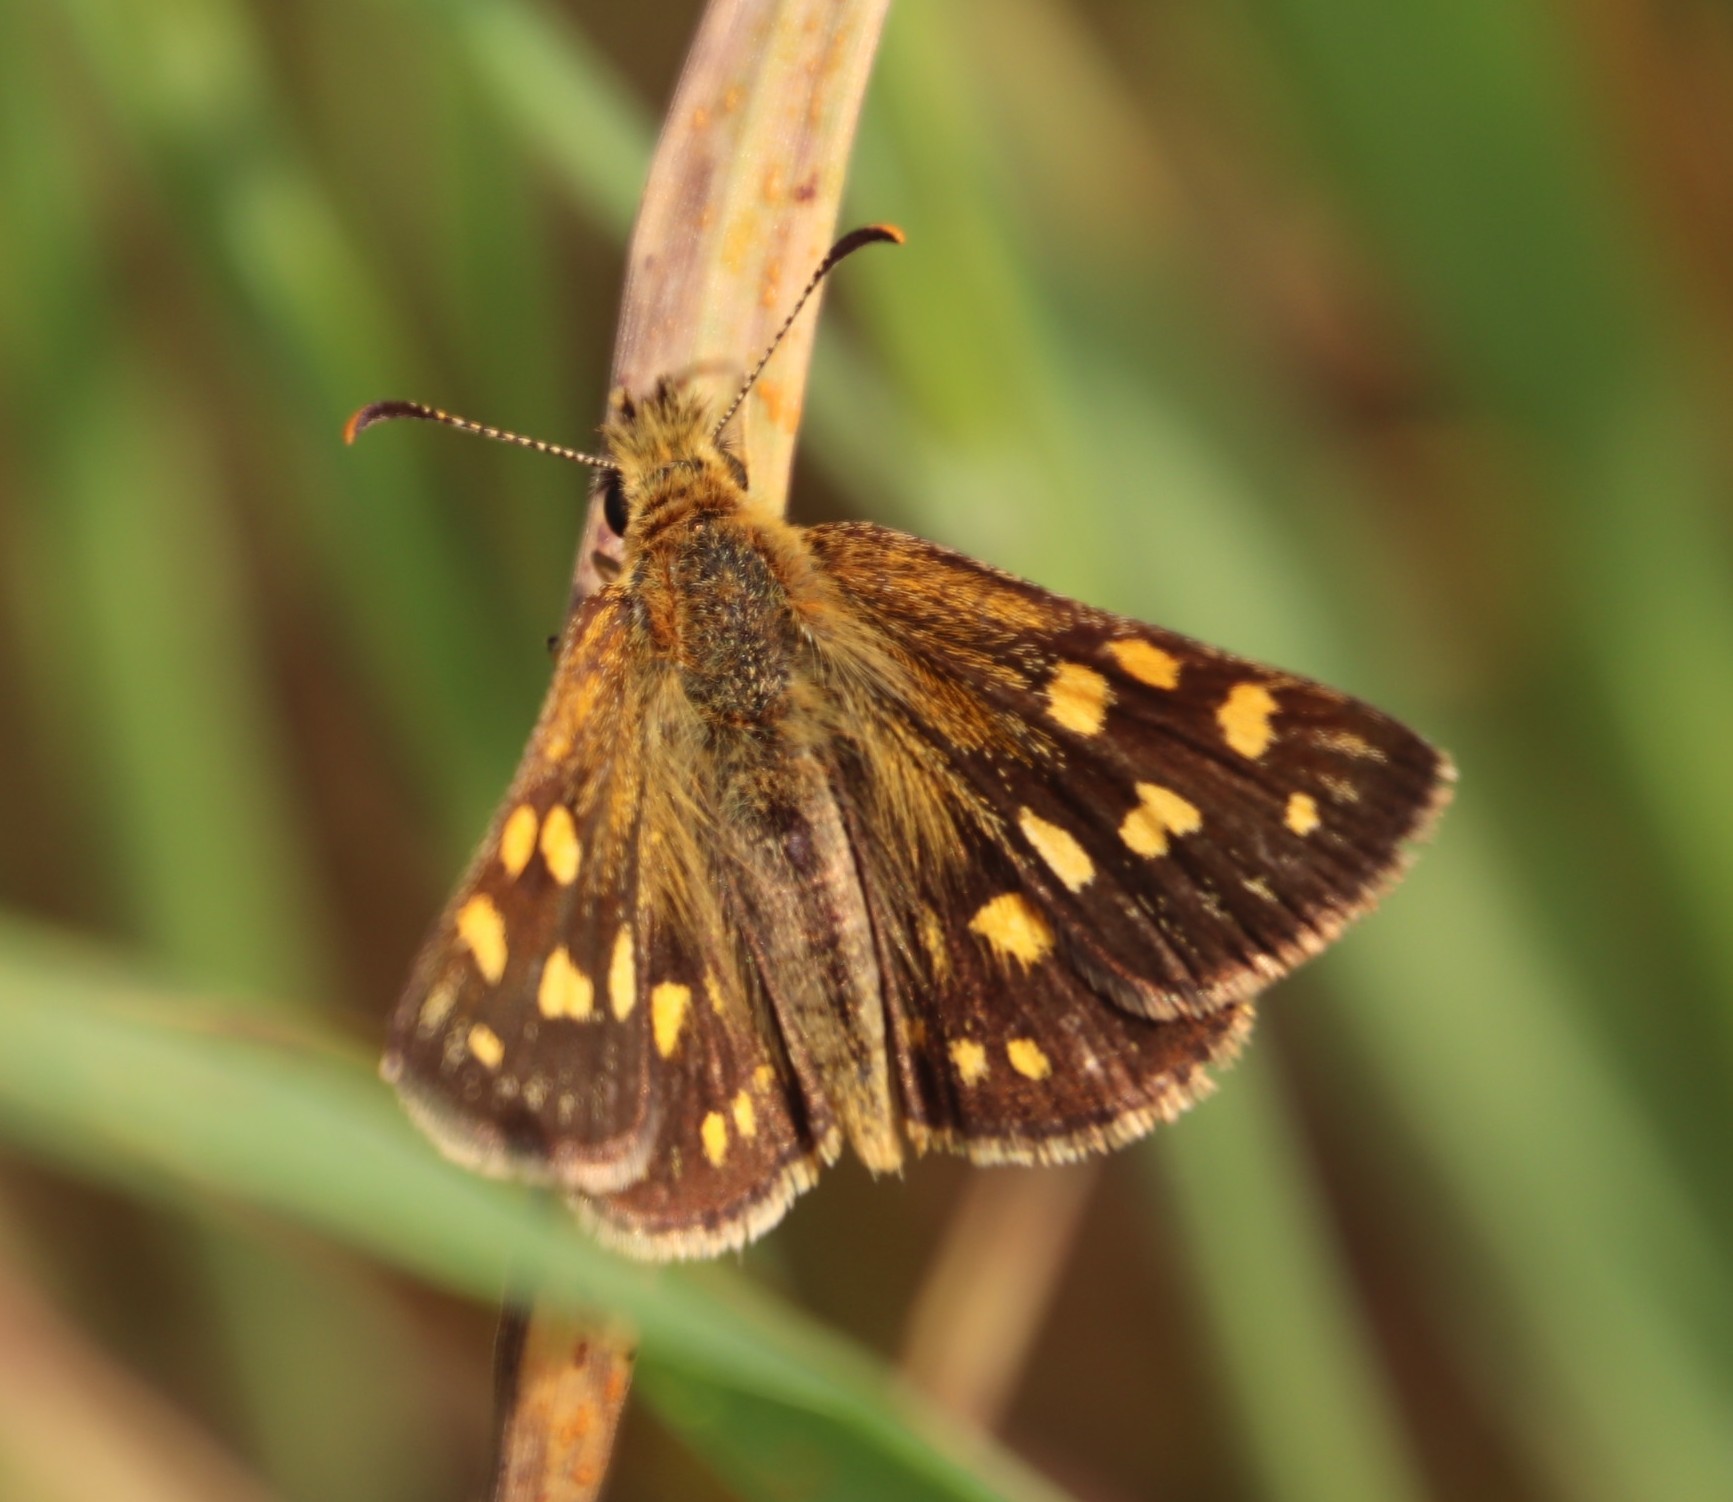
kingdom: Animalia
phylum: Arthropoda
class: Insecta
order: Lepidoptera
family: Hesperiidae
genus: Metisella
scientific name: Metisella malgacha
